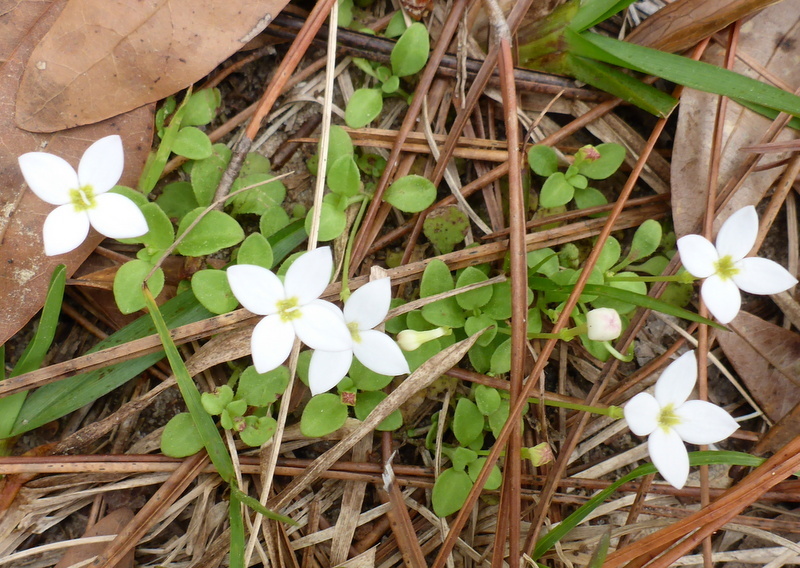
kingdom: Plantae
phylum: Tracheophyta
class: Magnoliopsida
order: Gentianales
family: Rubiaceae
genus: Houstonia
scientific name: Houstonia procumbens
